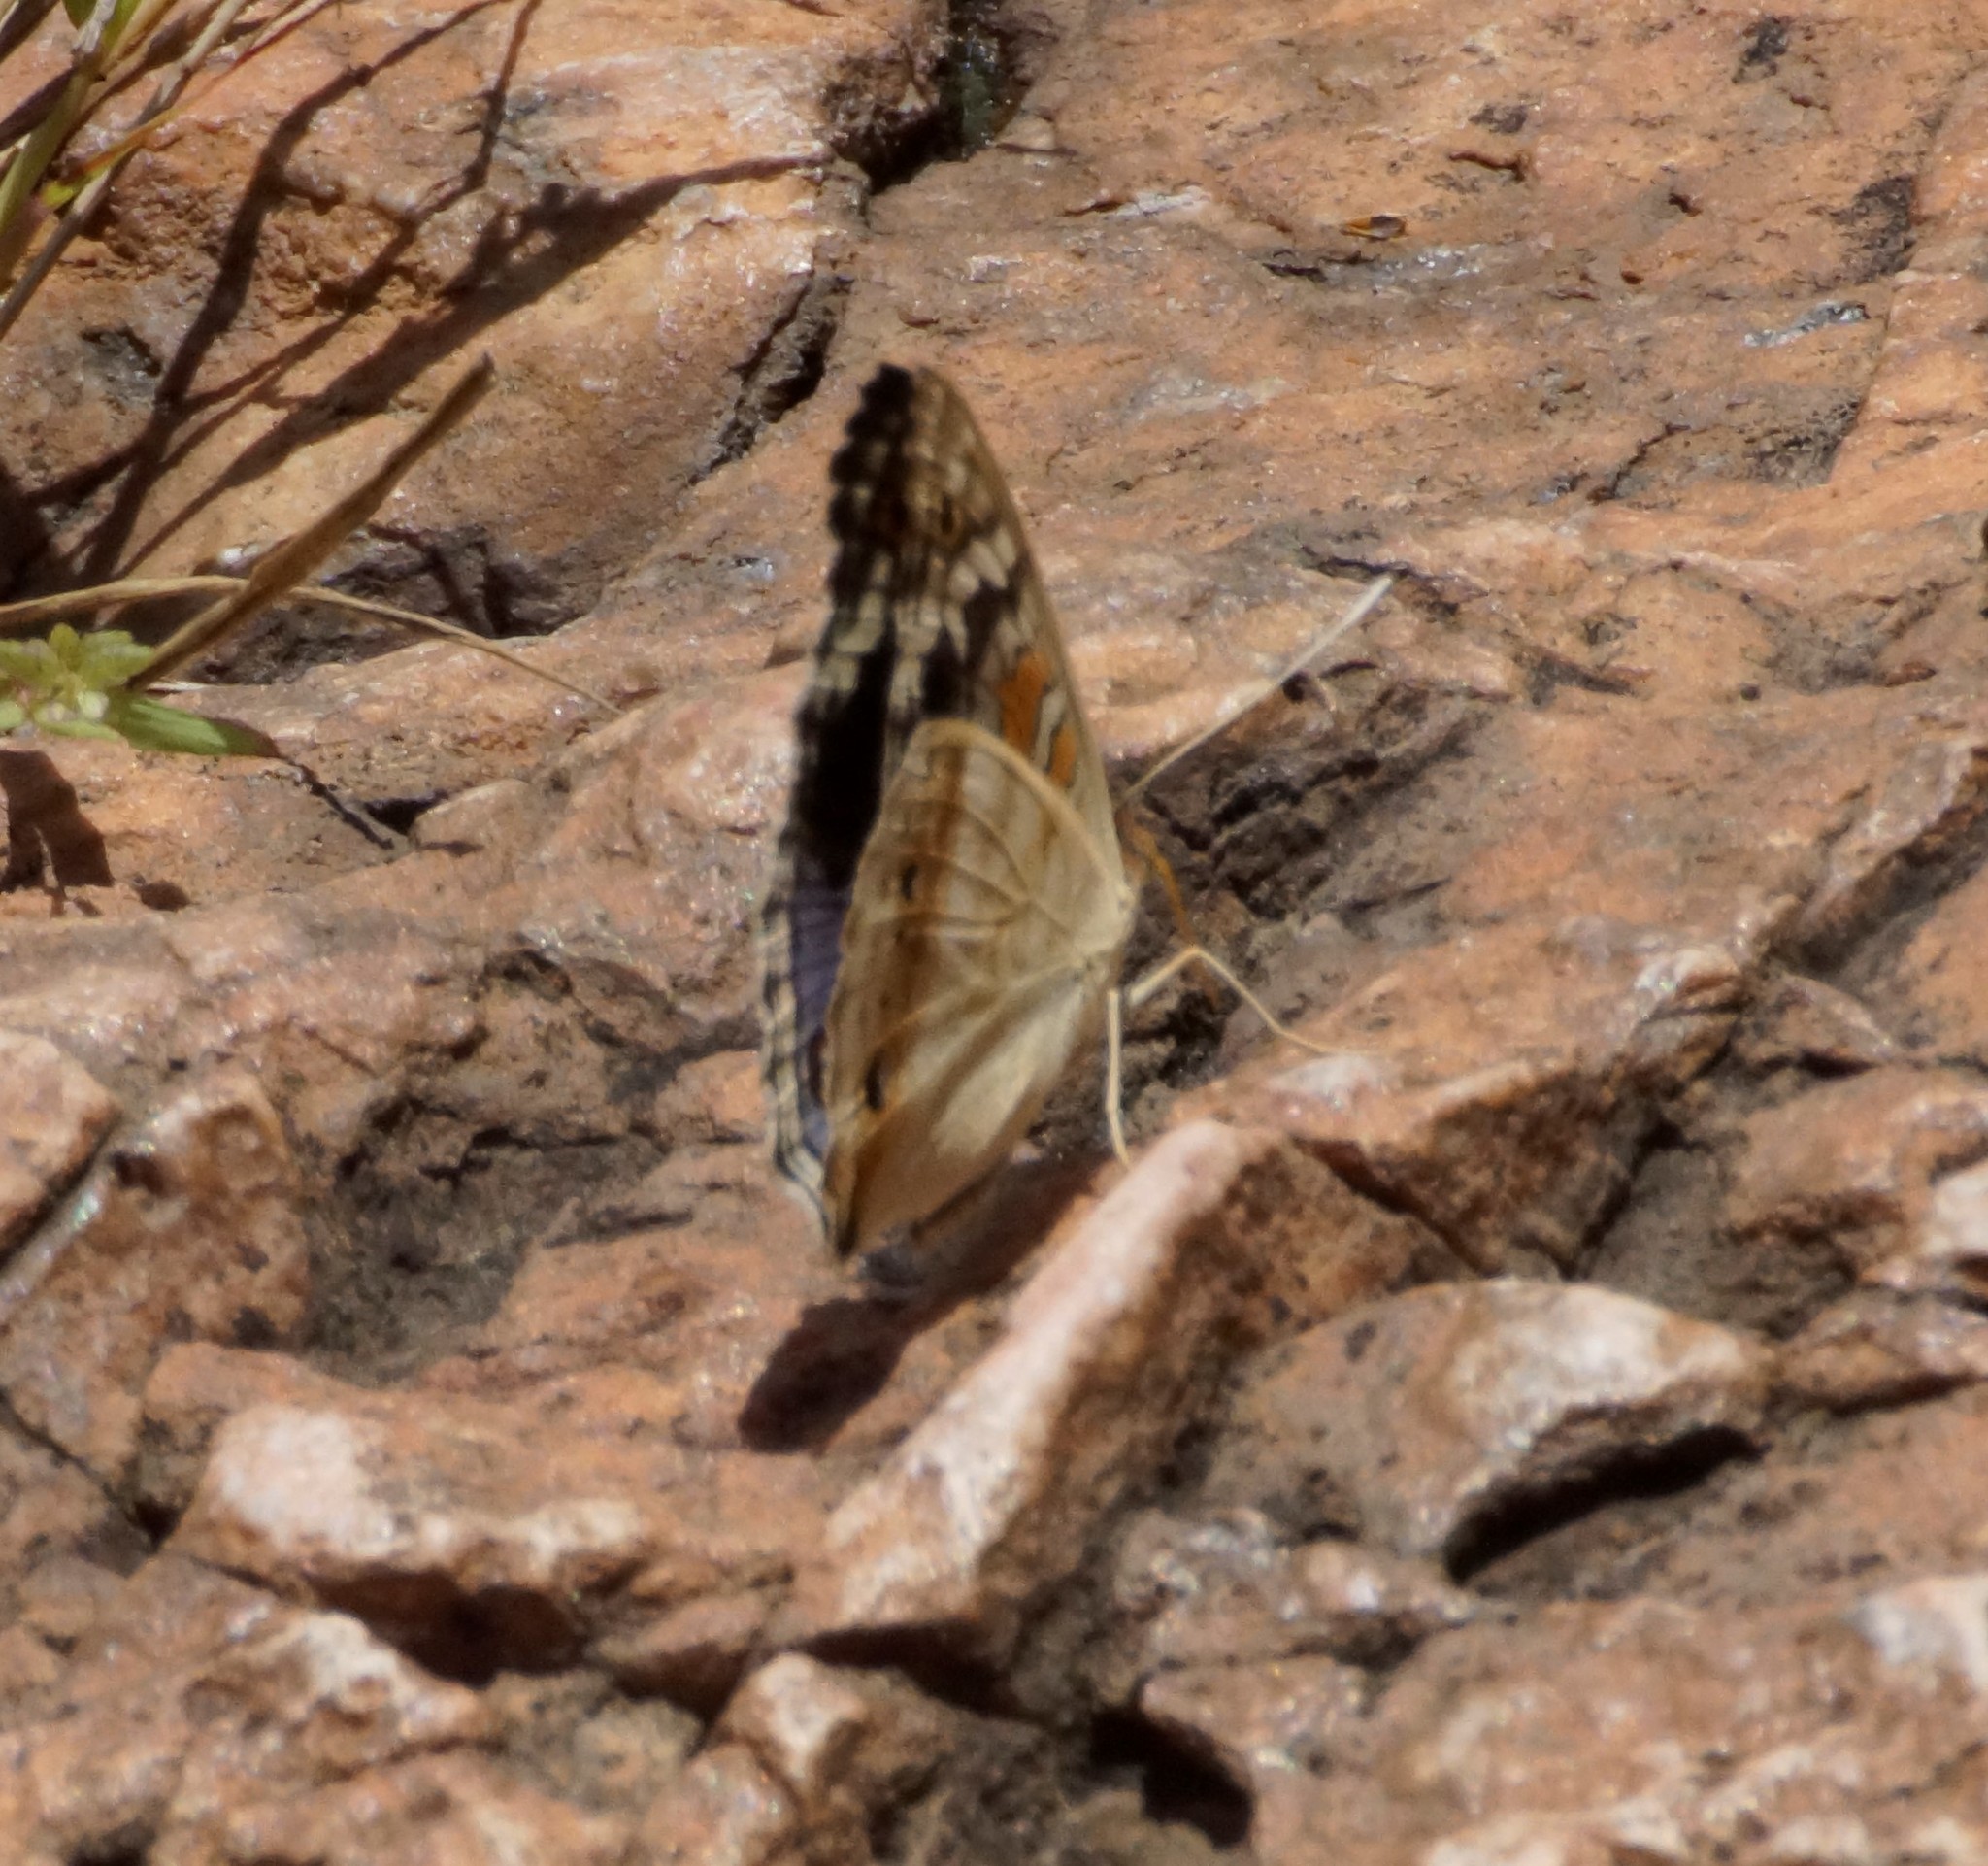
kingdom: Animalia
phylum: Arthropoda
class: Insecta
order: Lepidoptera
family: Nymphalidae
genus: Junonia
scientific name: Junonia orithya
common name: Blue pansy
